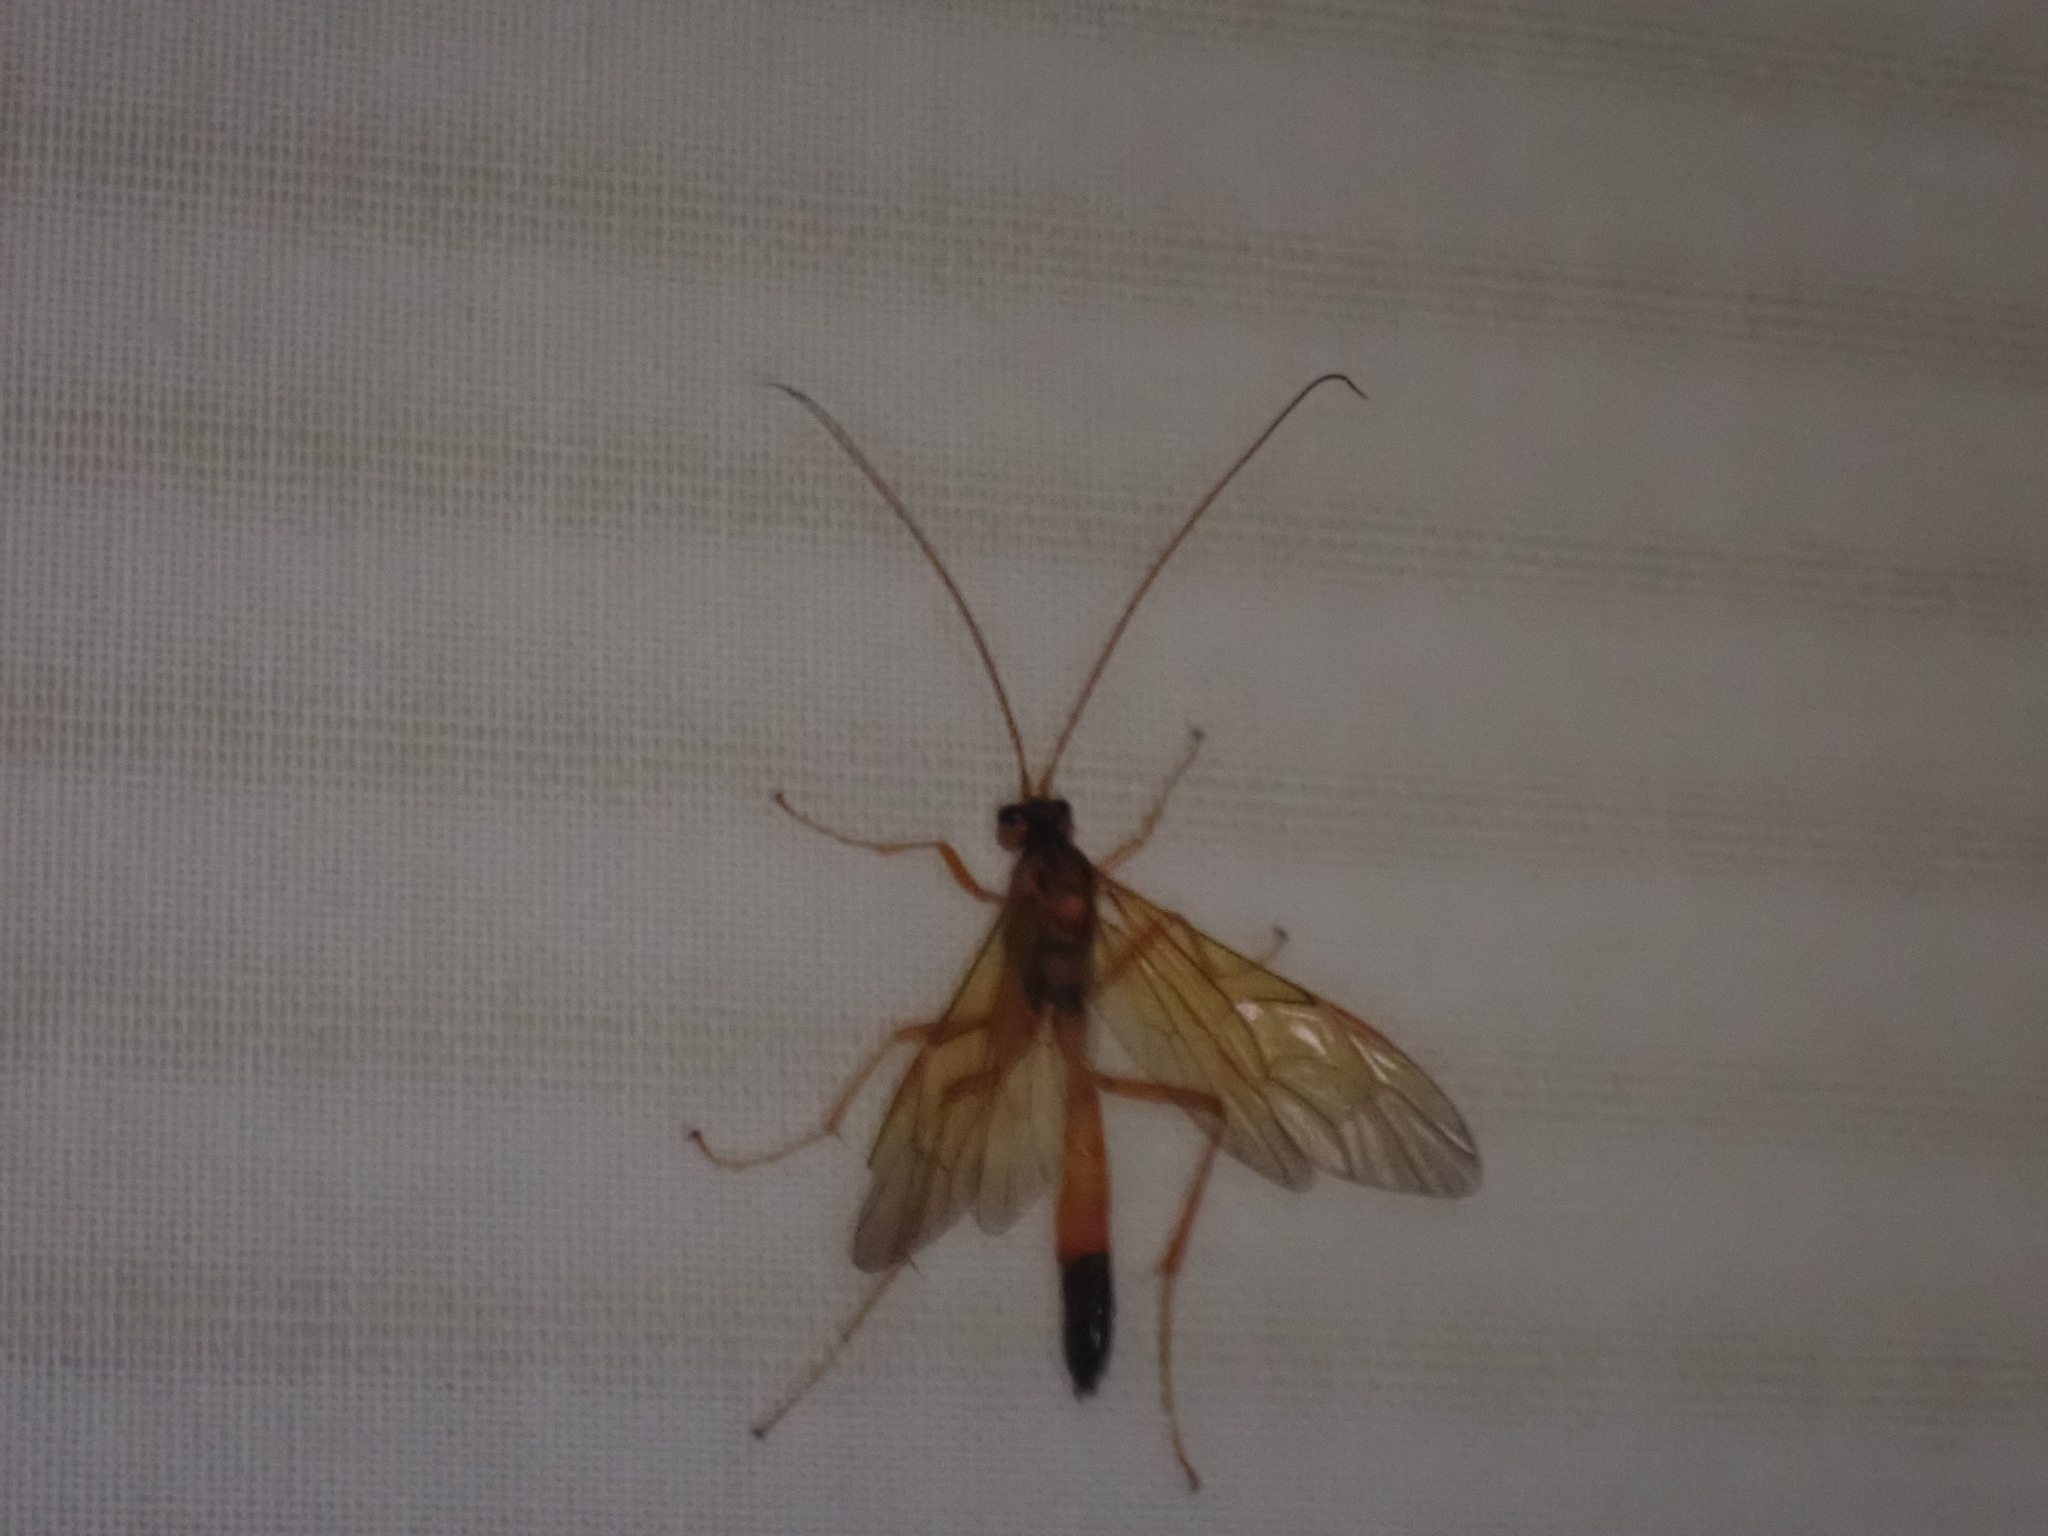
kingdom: Animalia
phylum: Arthropoda
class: Insecta
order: Hymenoptera
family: Ichneumonidae
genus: Opheltes
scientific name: Opheltes glaucopterus
